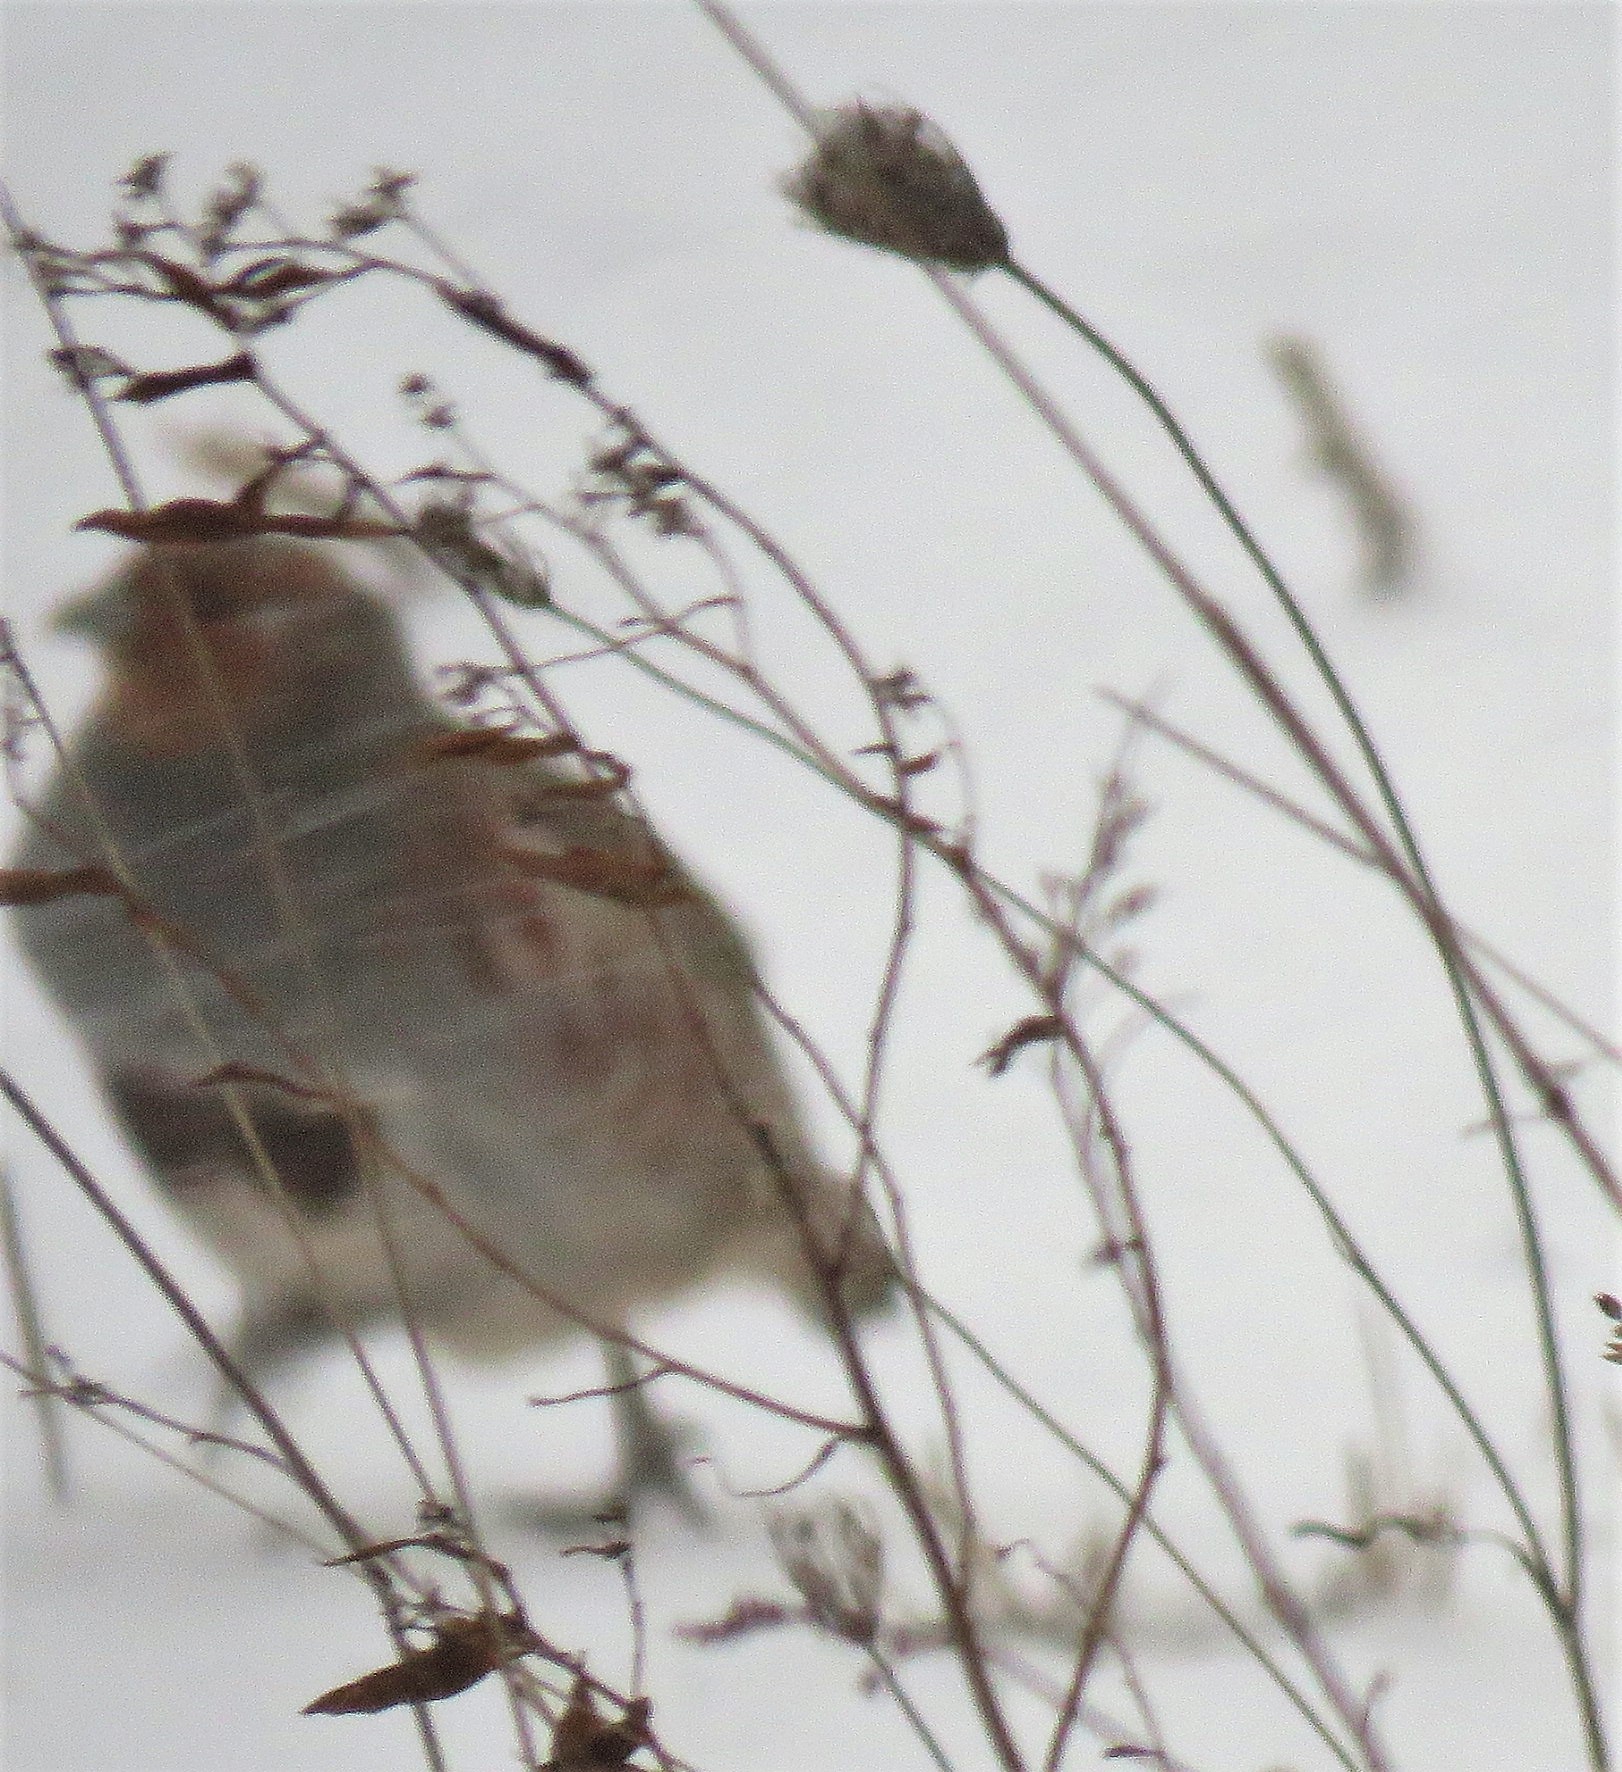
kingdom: Animalia
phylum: Chordata
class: Aves
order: Galliformes
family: Phasianidae
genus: Perdix
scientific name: Perdix perdix
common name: Grey partridge
